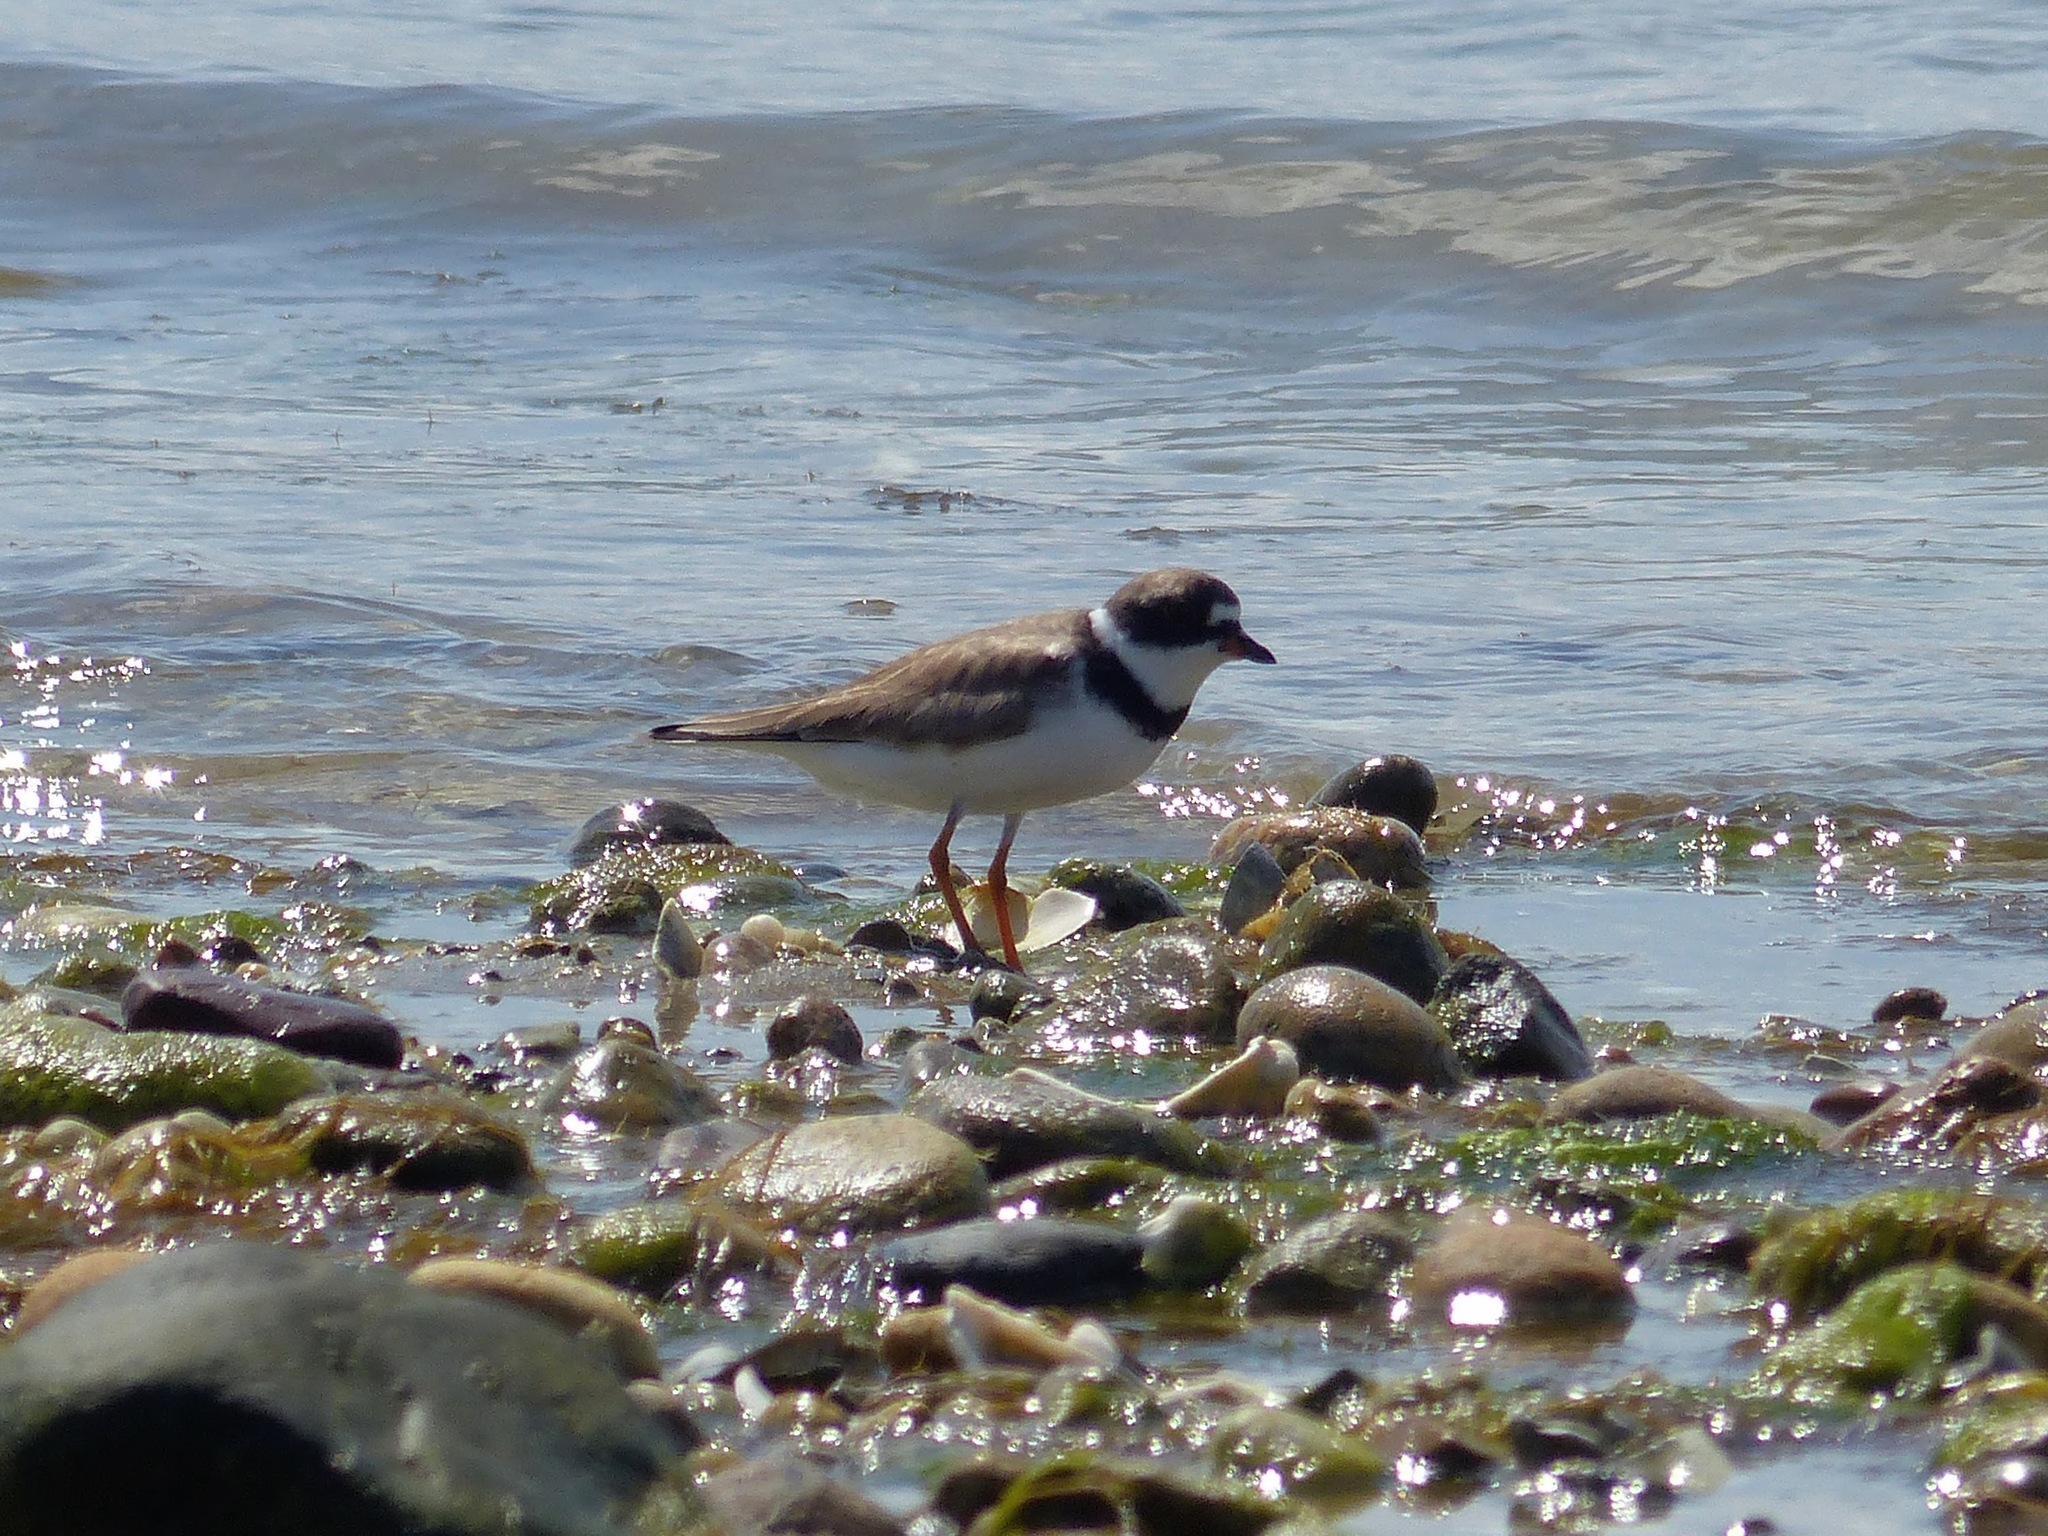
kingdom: Animalia
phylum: Chordata
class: Aves
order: Charadriiformes
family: Charadriidae
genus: Charadrius
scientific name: Charadrius semipalmatus
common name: Semipalmated plover
